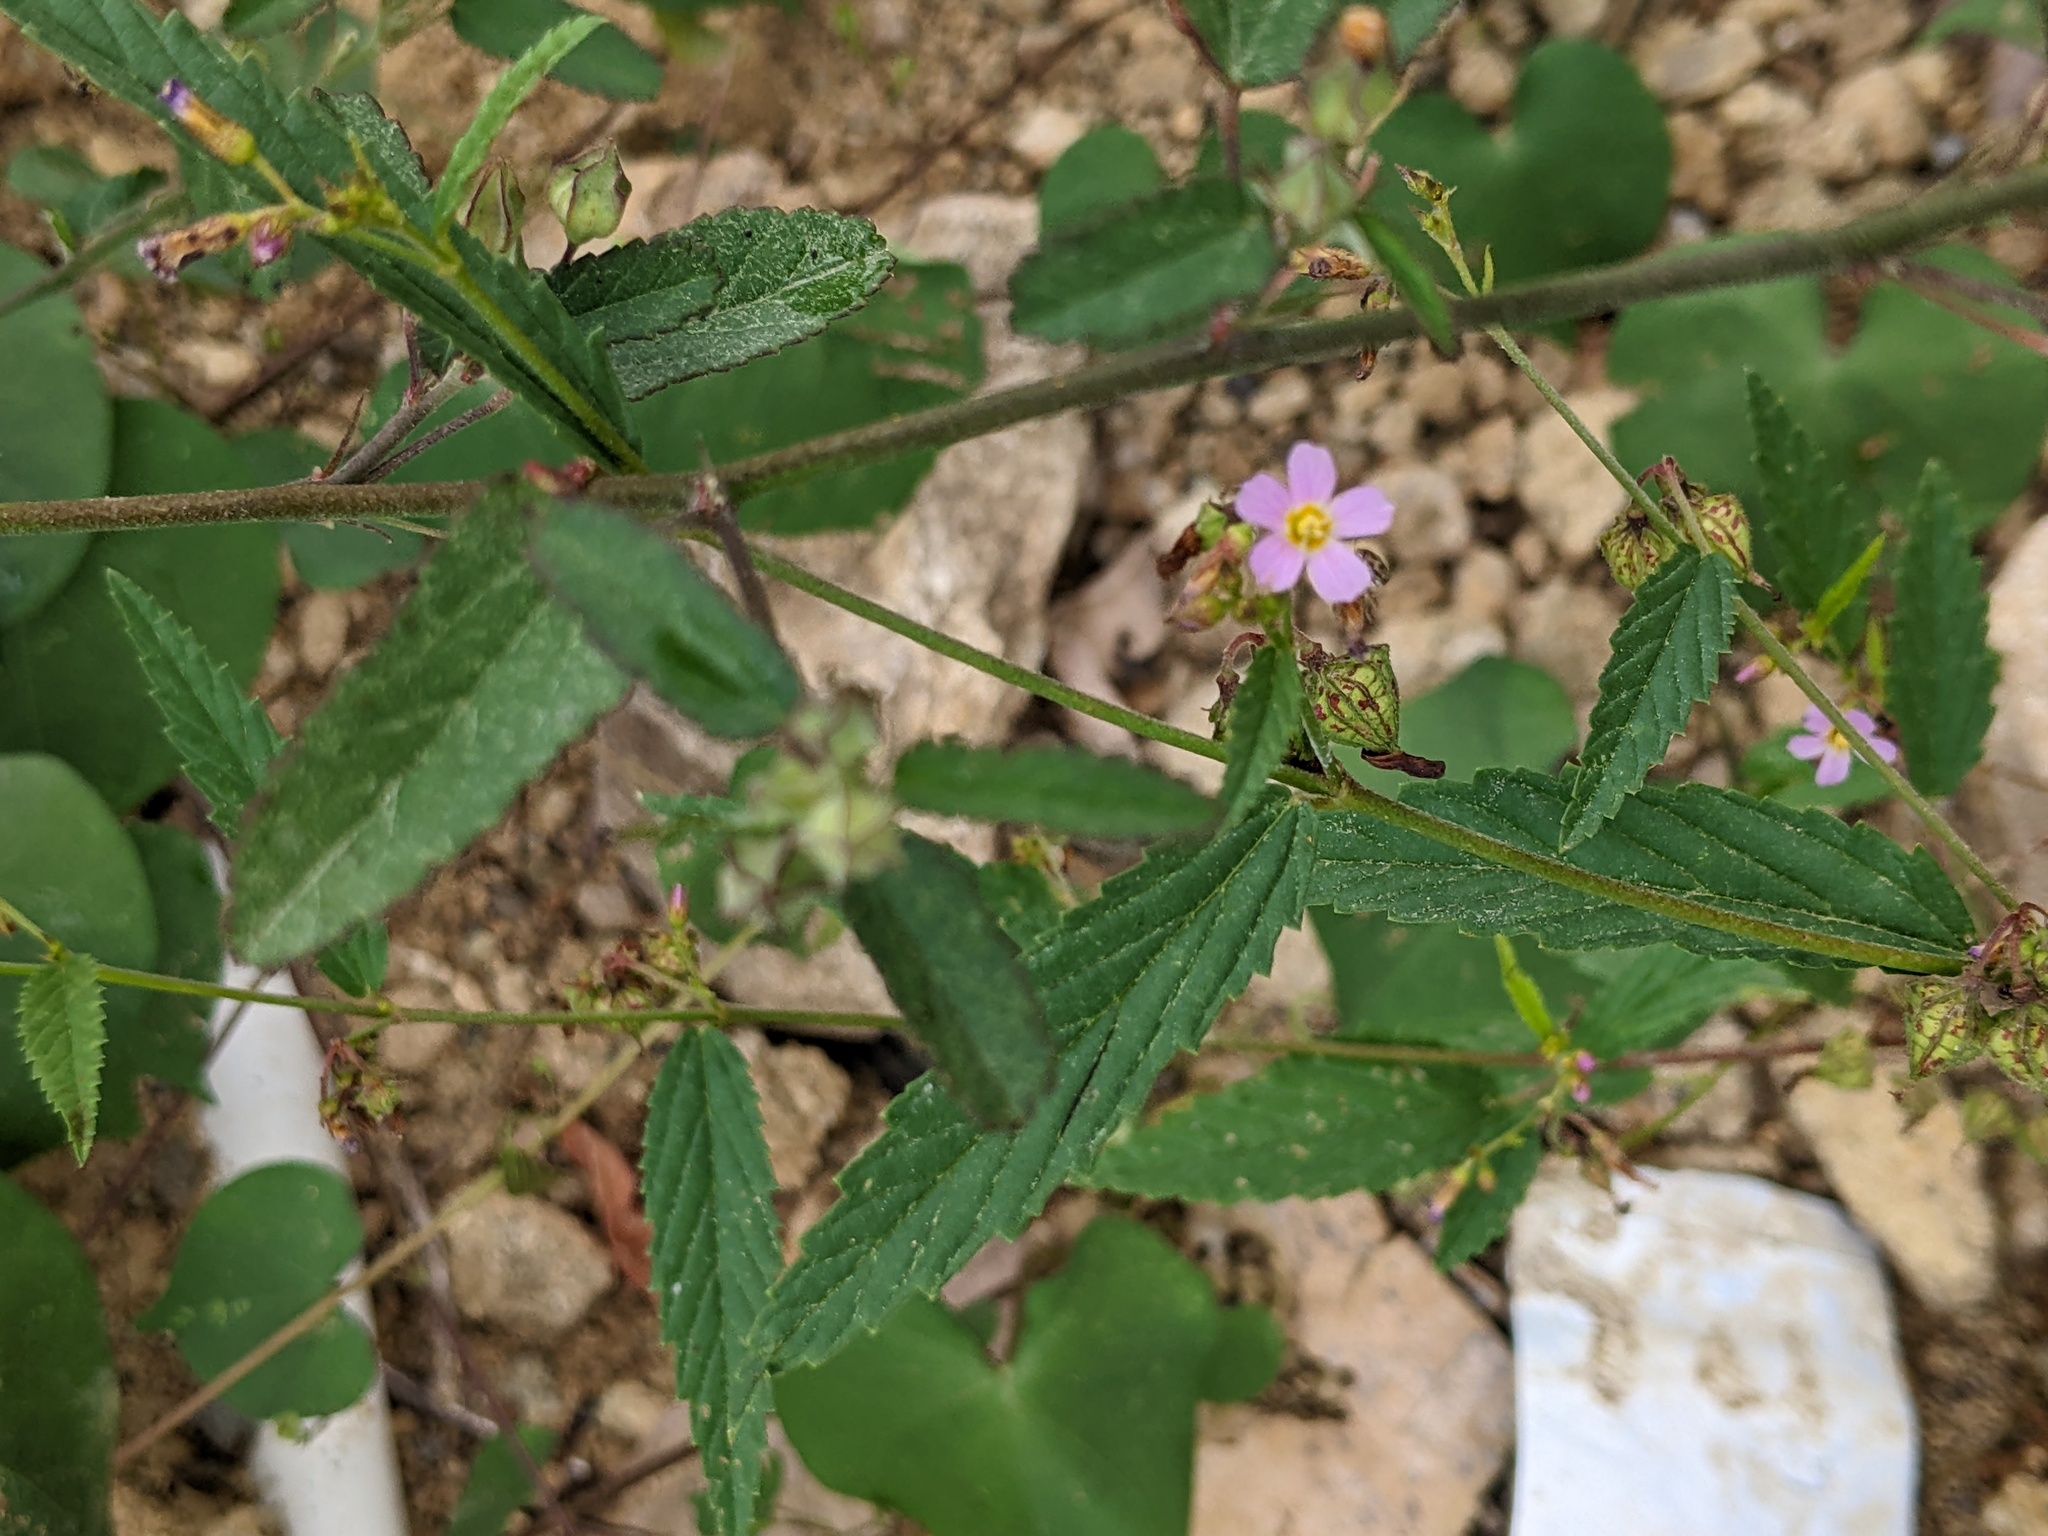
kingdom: Plantae
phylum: Tracheophyta
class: Magnoliopsida
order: Malvales
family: Malvaceae
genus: Melochia
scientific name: Melochia pyramidata
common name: Pyramidflower
